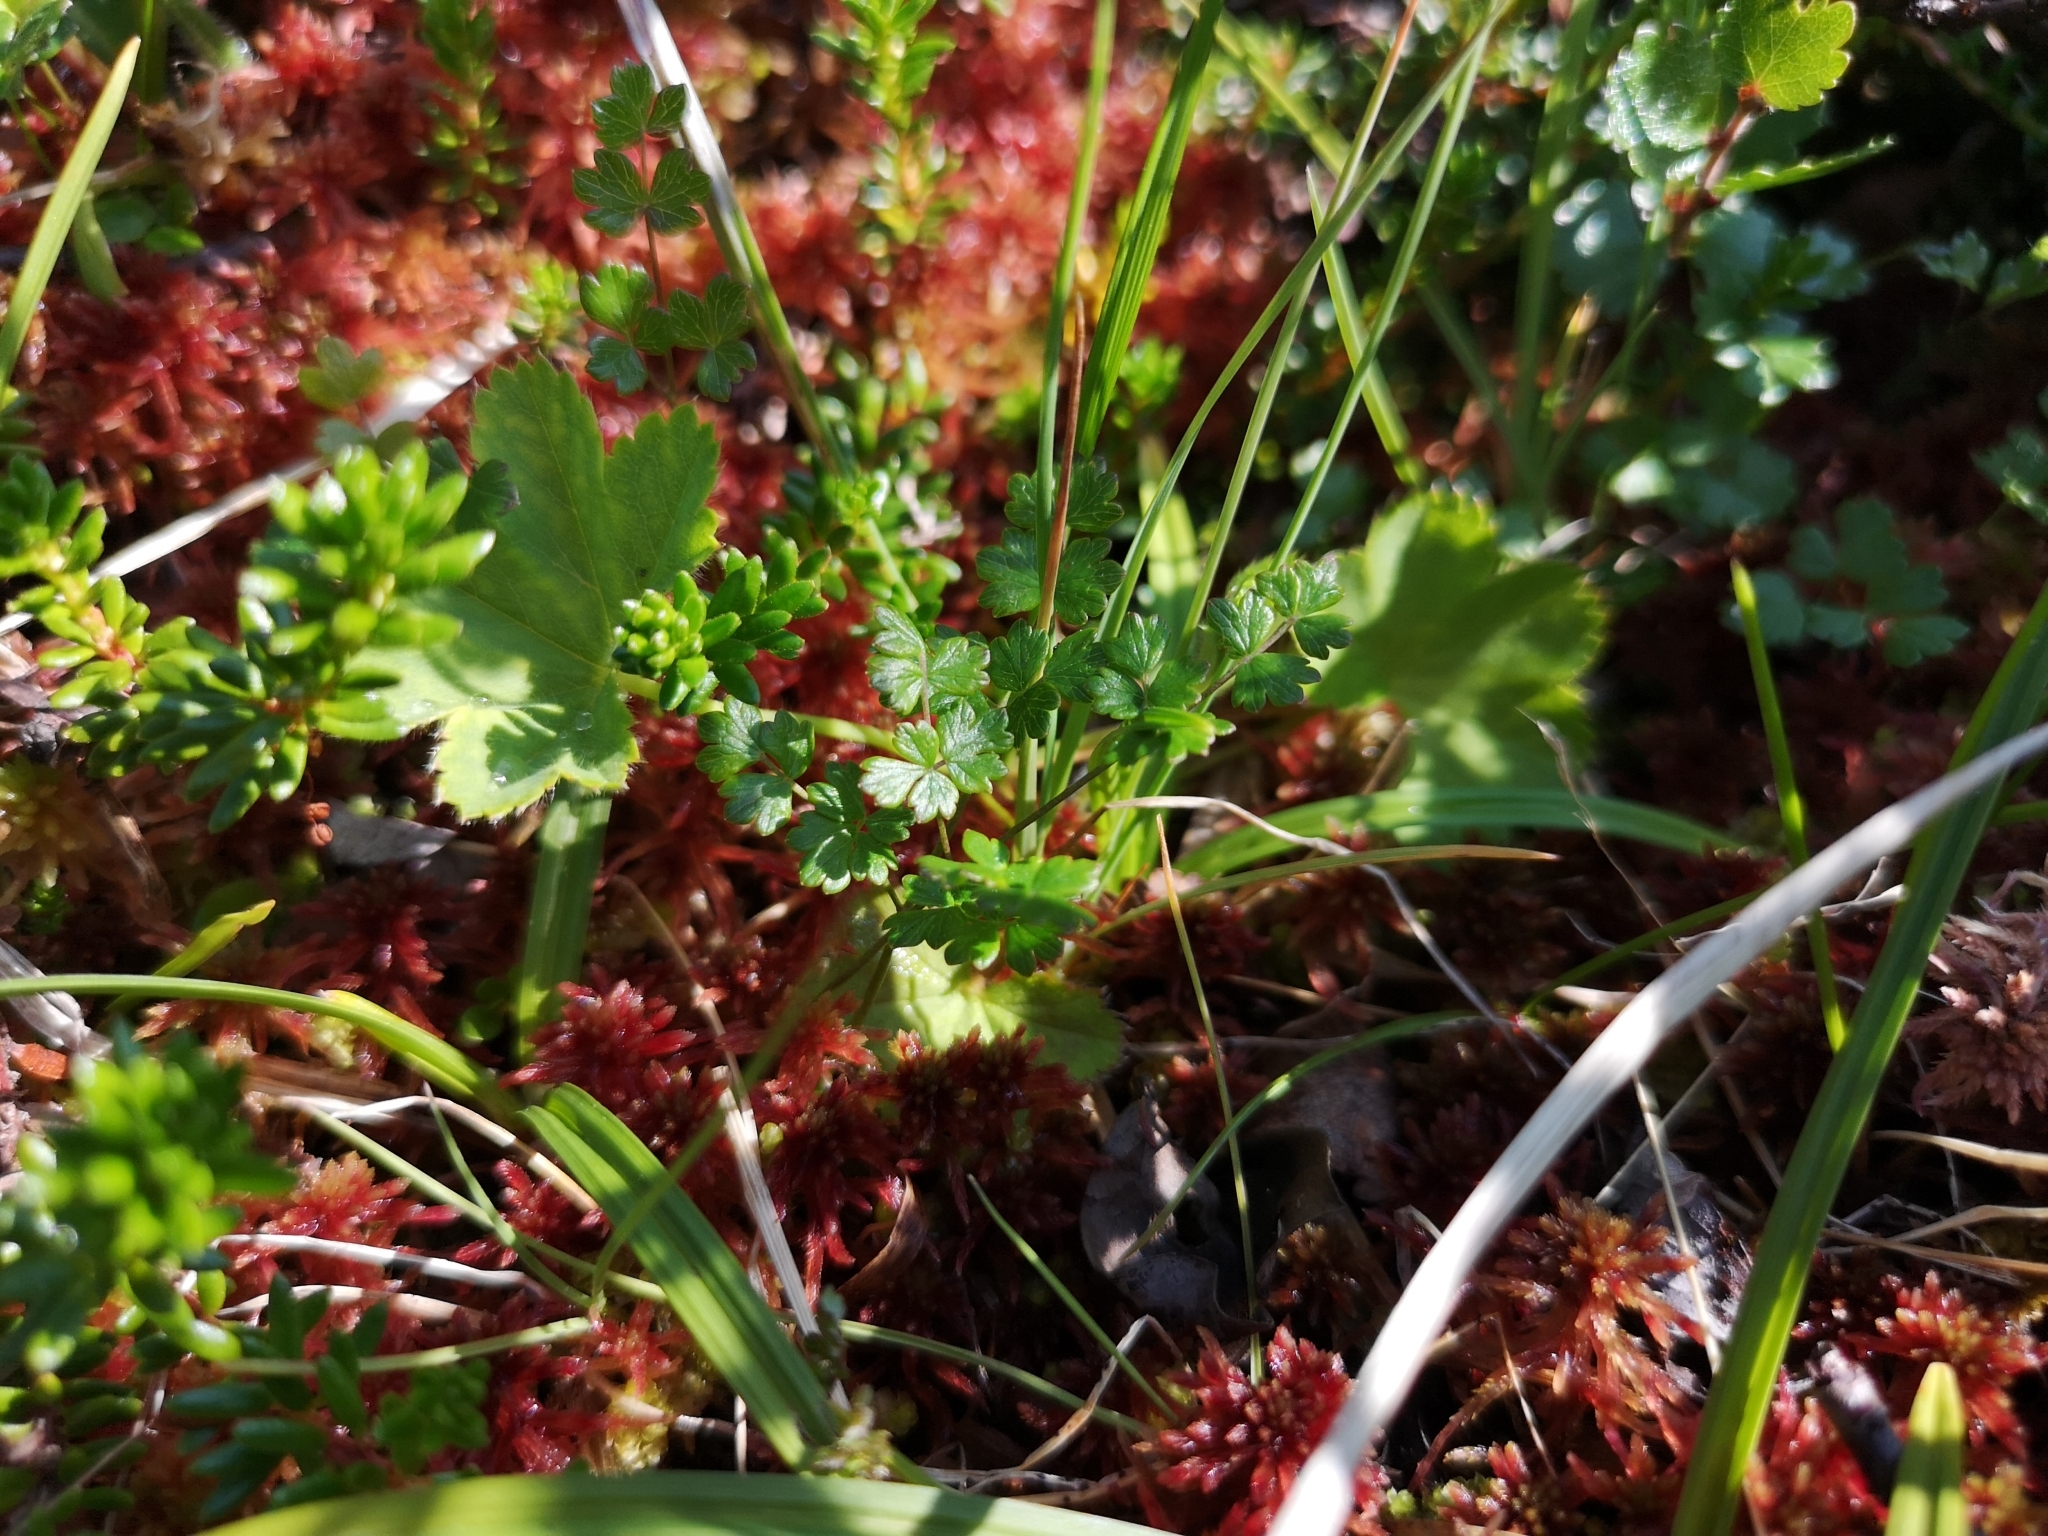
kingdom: Plantae
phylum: Tracheophyta
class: Magnoliopsida
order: Ranunculales
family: Ranunculaceae
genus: Thalictrum
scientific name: Thalictrum alpinum
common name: Alpine meadow-rue
